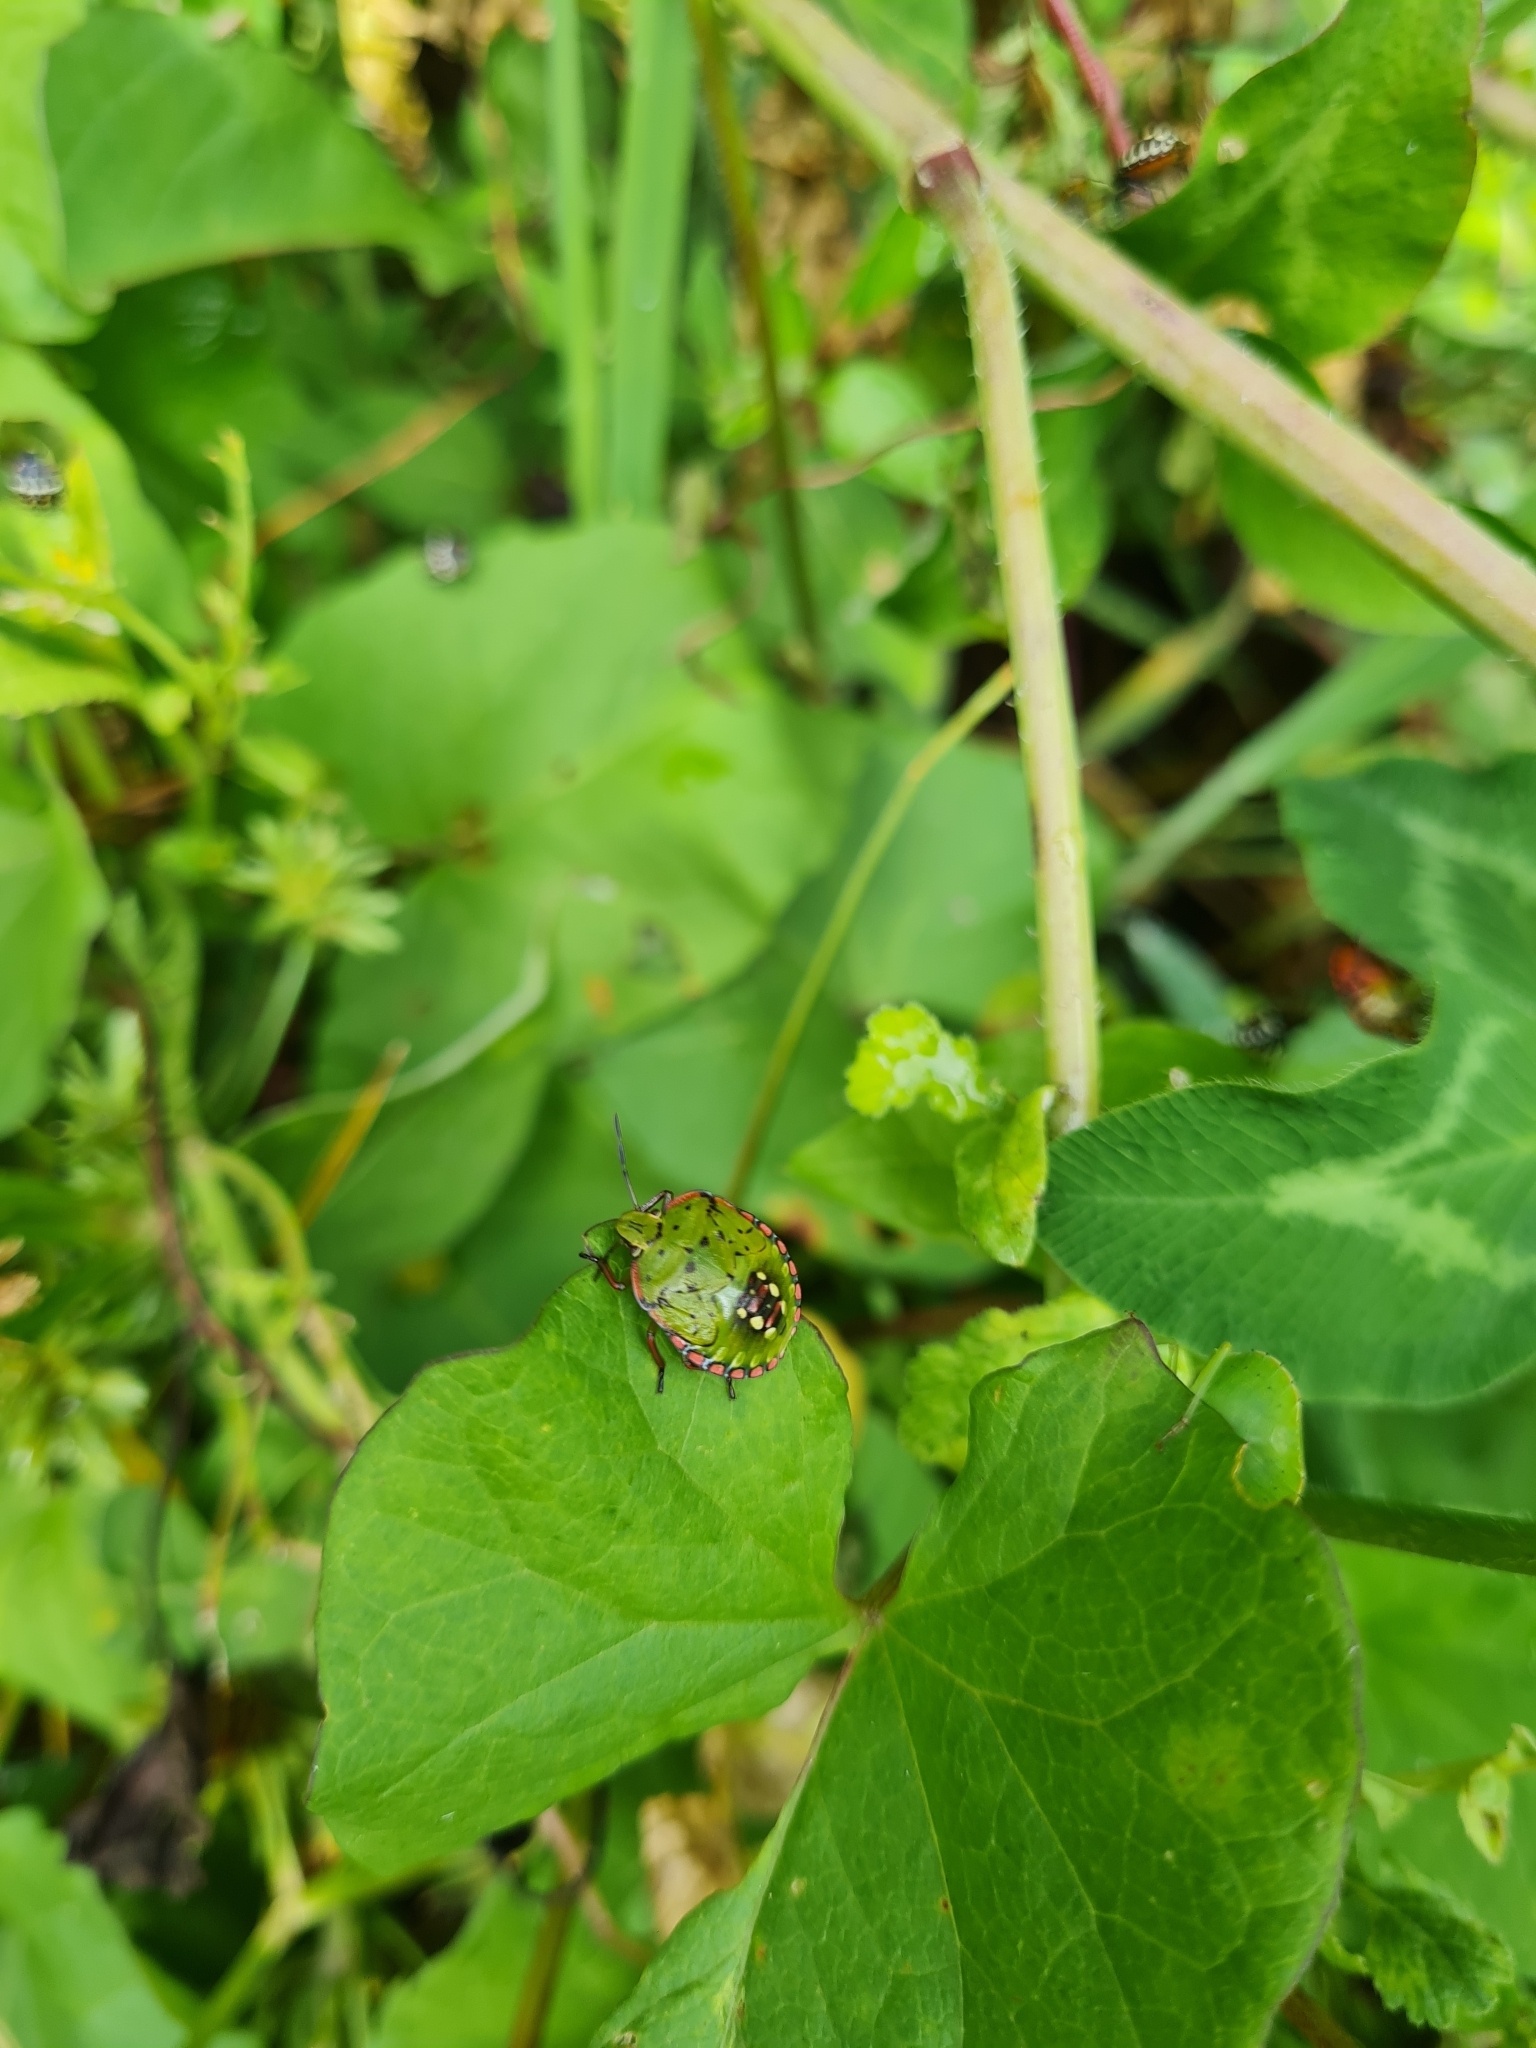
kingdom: Animalia
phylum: Arthropoda
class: Insecta
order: Hemiptera
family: Pentatomidae
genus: Nezara
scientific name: Nezara viridula
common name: Southern green stink bug
